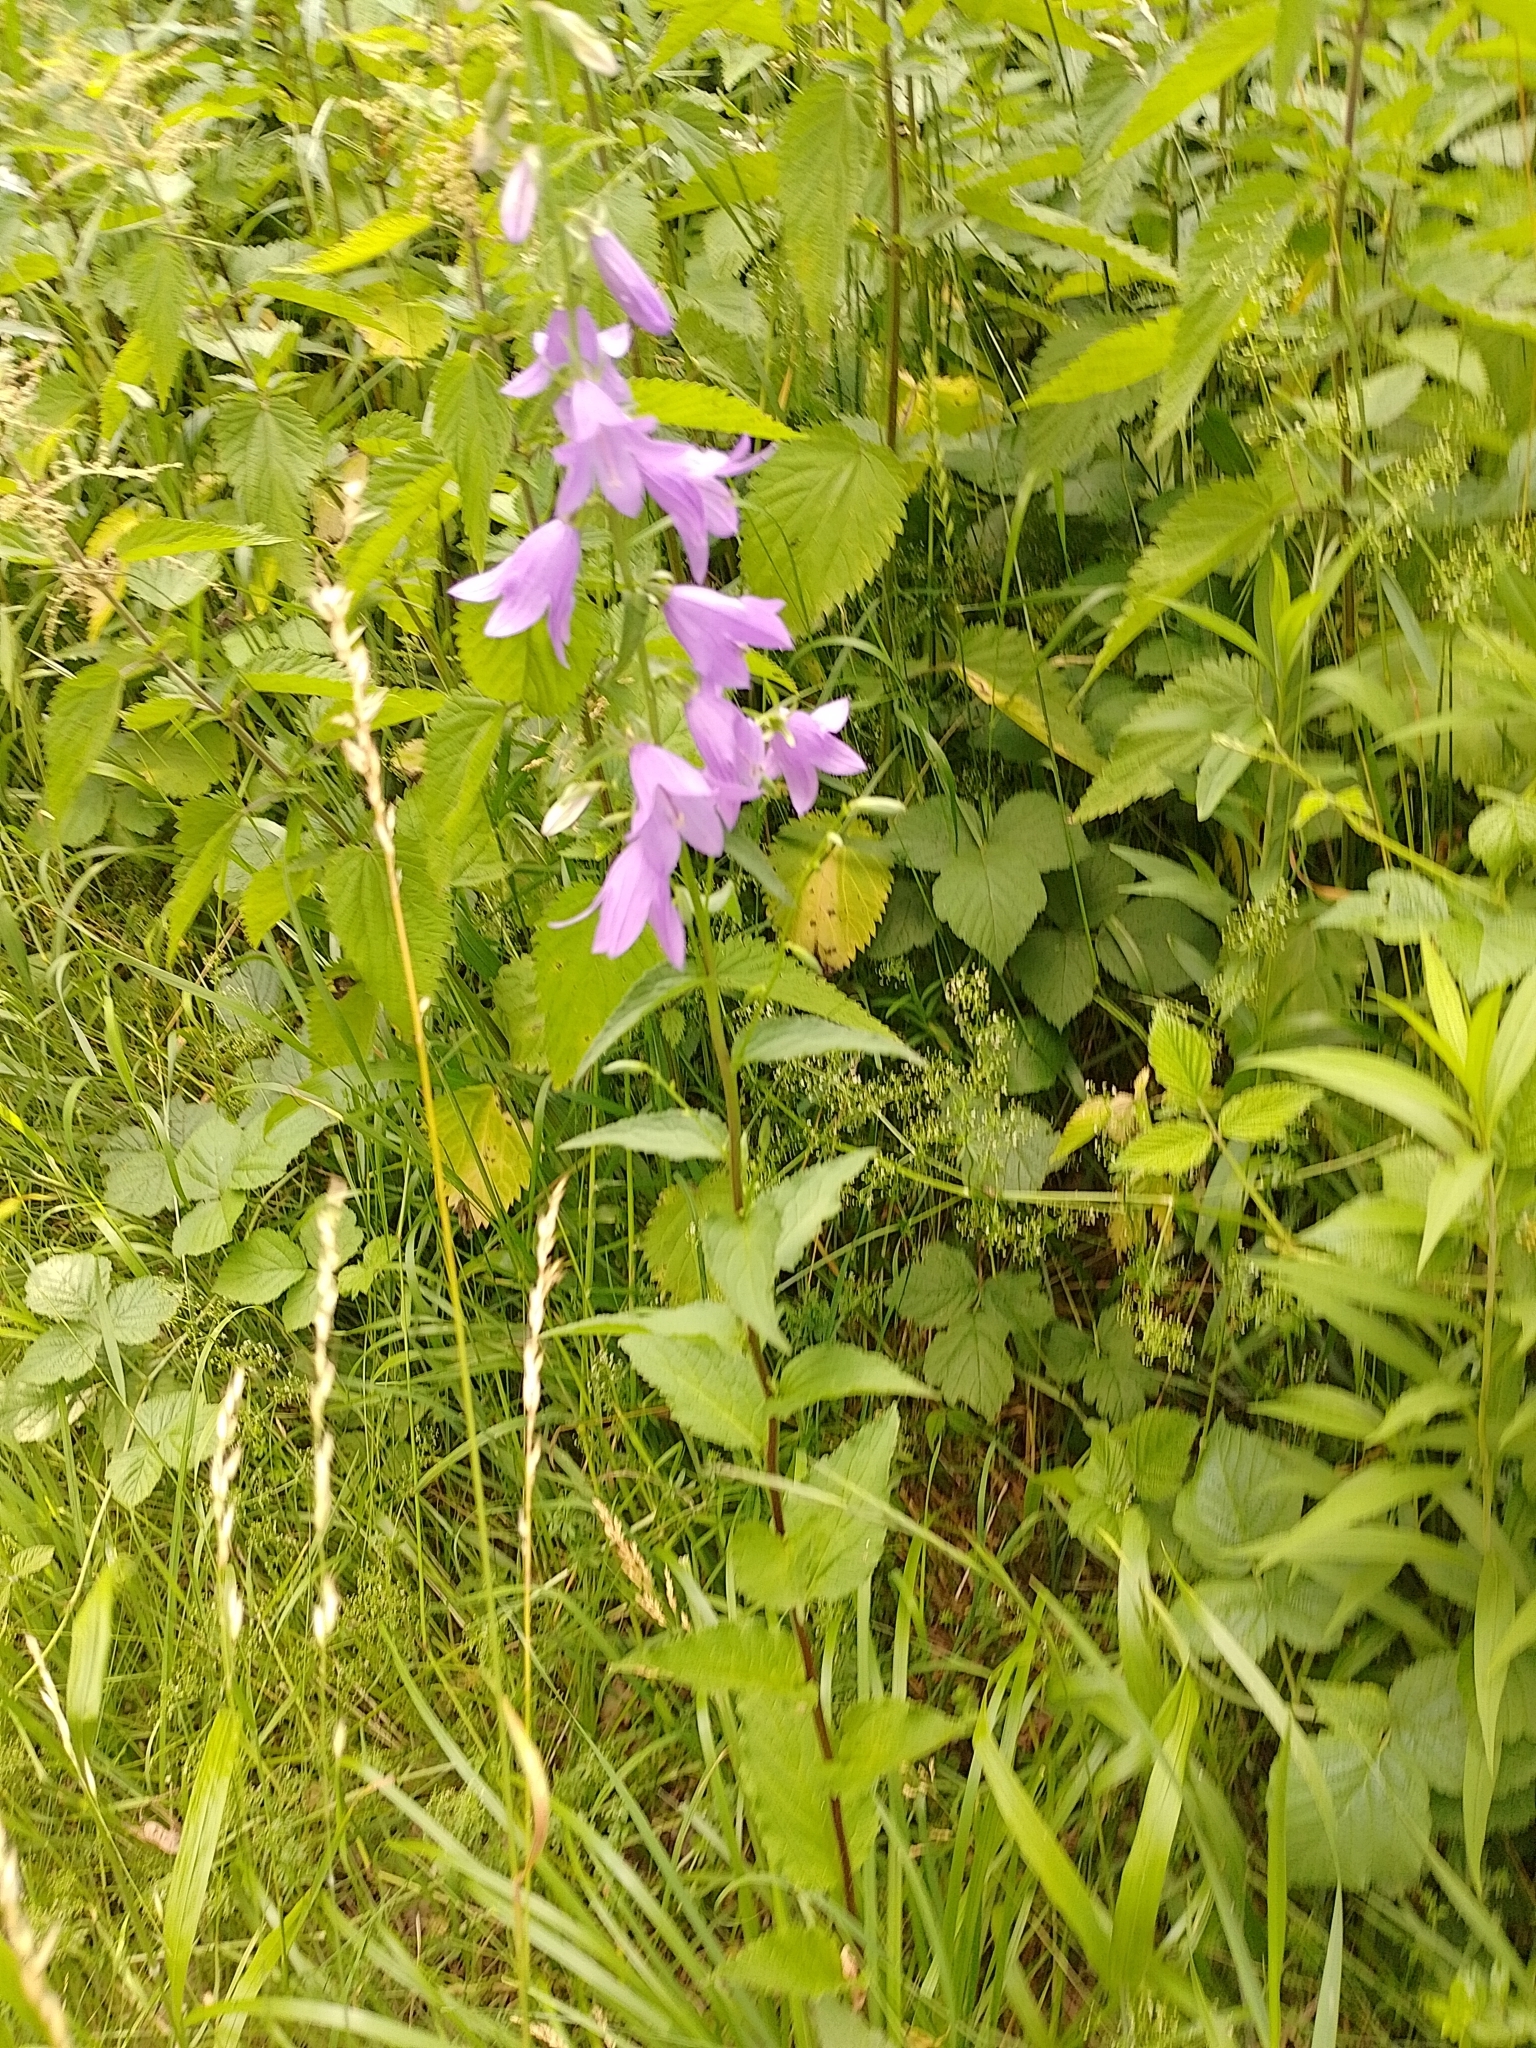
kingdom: Plantae
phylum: Tracheophyta
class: Magnoliopsida
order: Asterales
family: Campanulaceae
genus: Campanula
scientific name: Campanula rapunculoides
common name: Creeping bellflower
